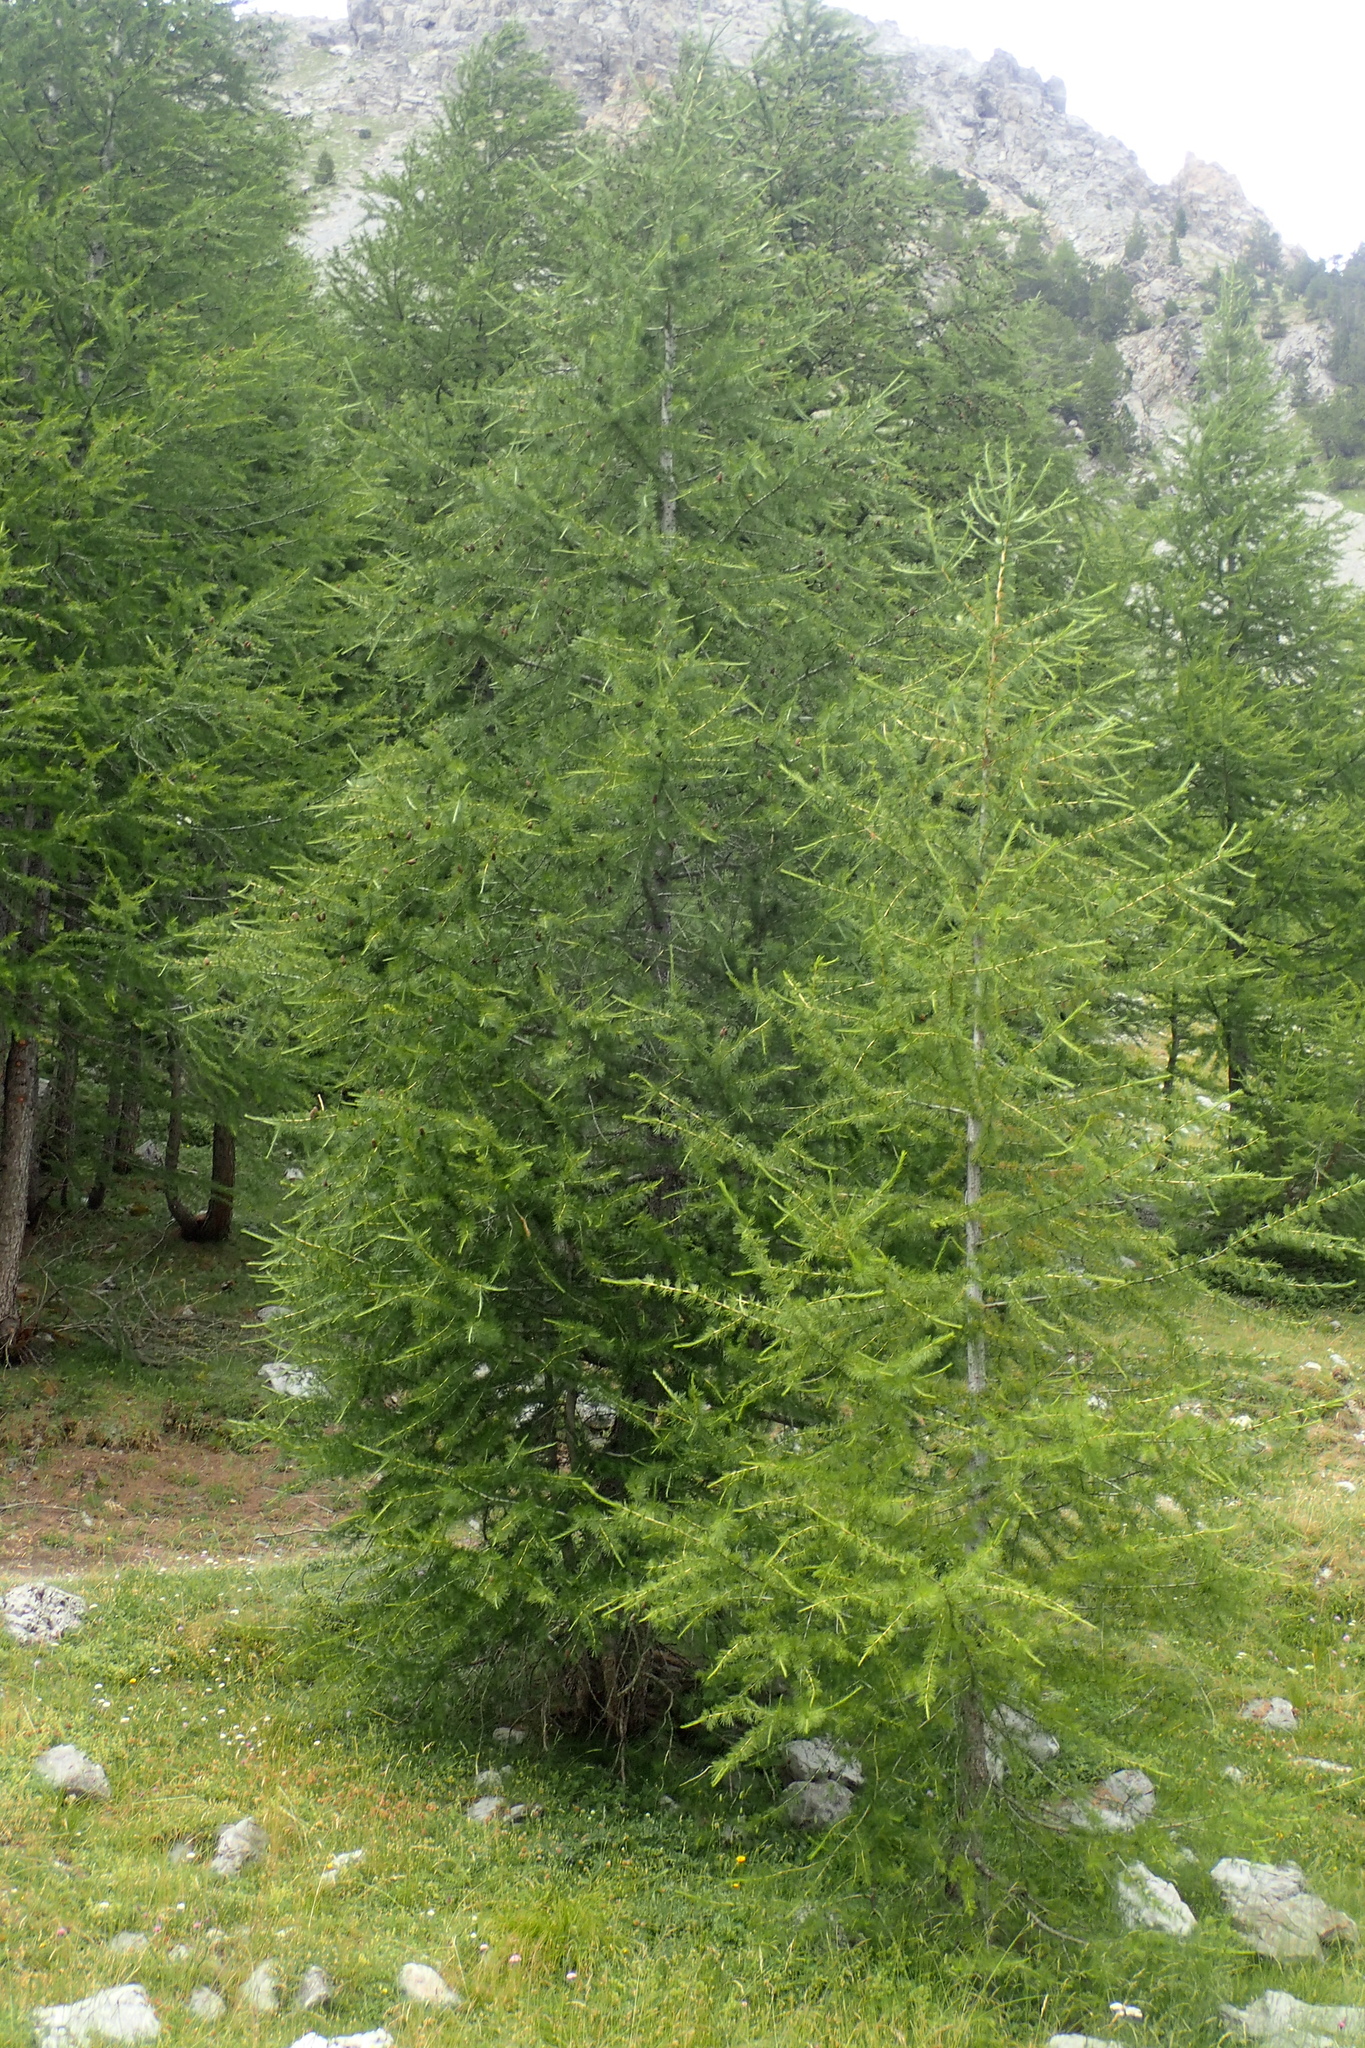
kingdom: Plantae
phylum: Tracheophyta
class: Pinopsida
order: Pinales
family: Pinaceae
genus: Larix
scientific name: Larix decidua
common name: European larch
